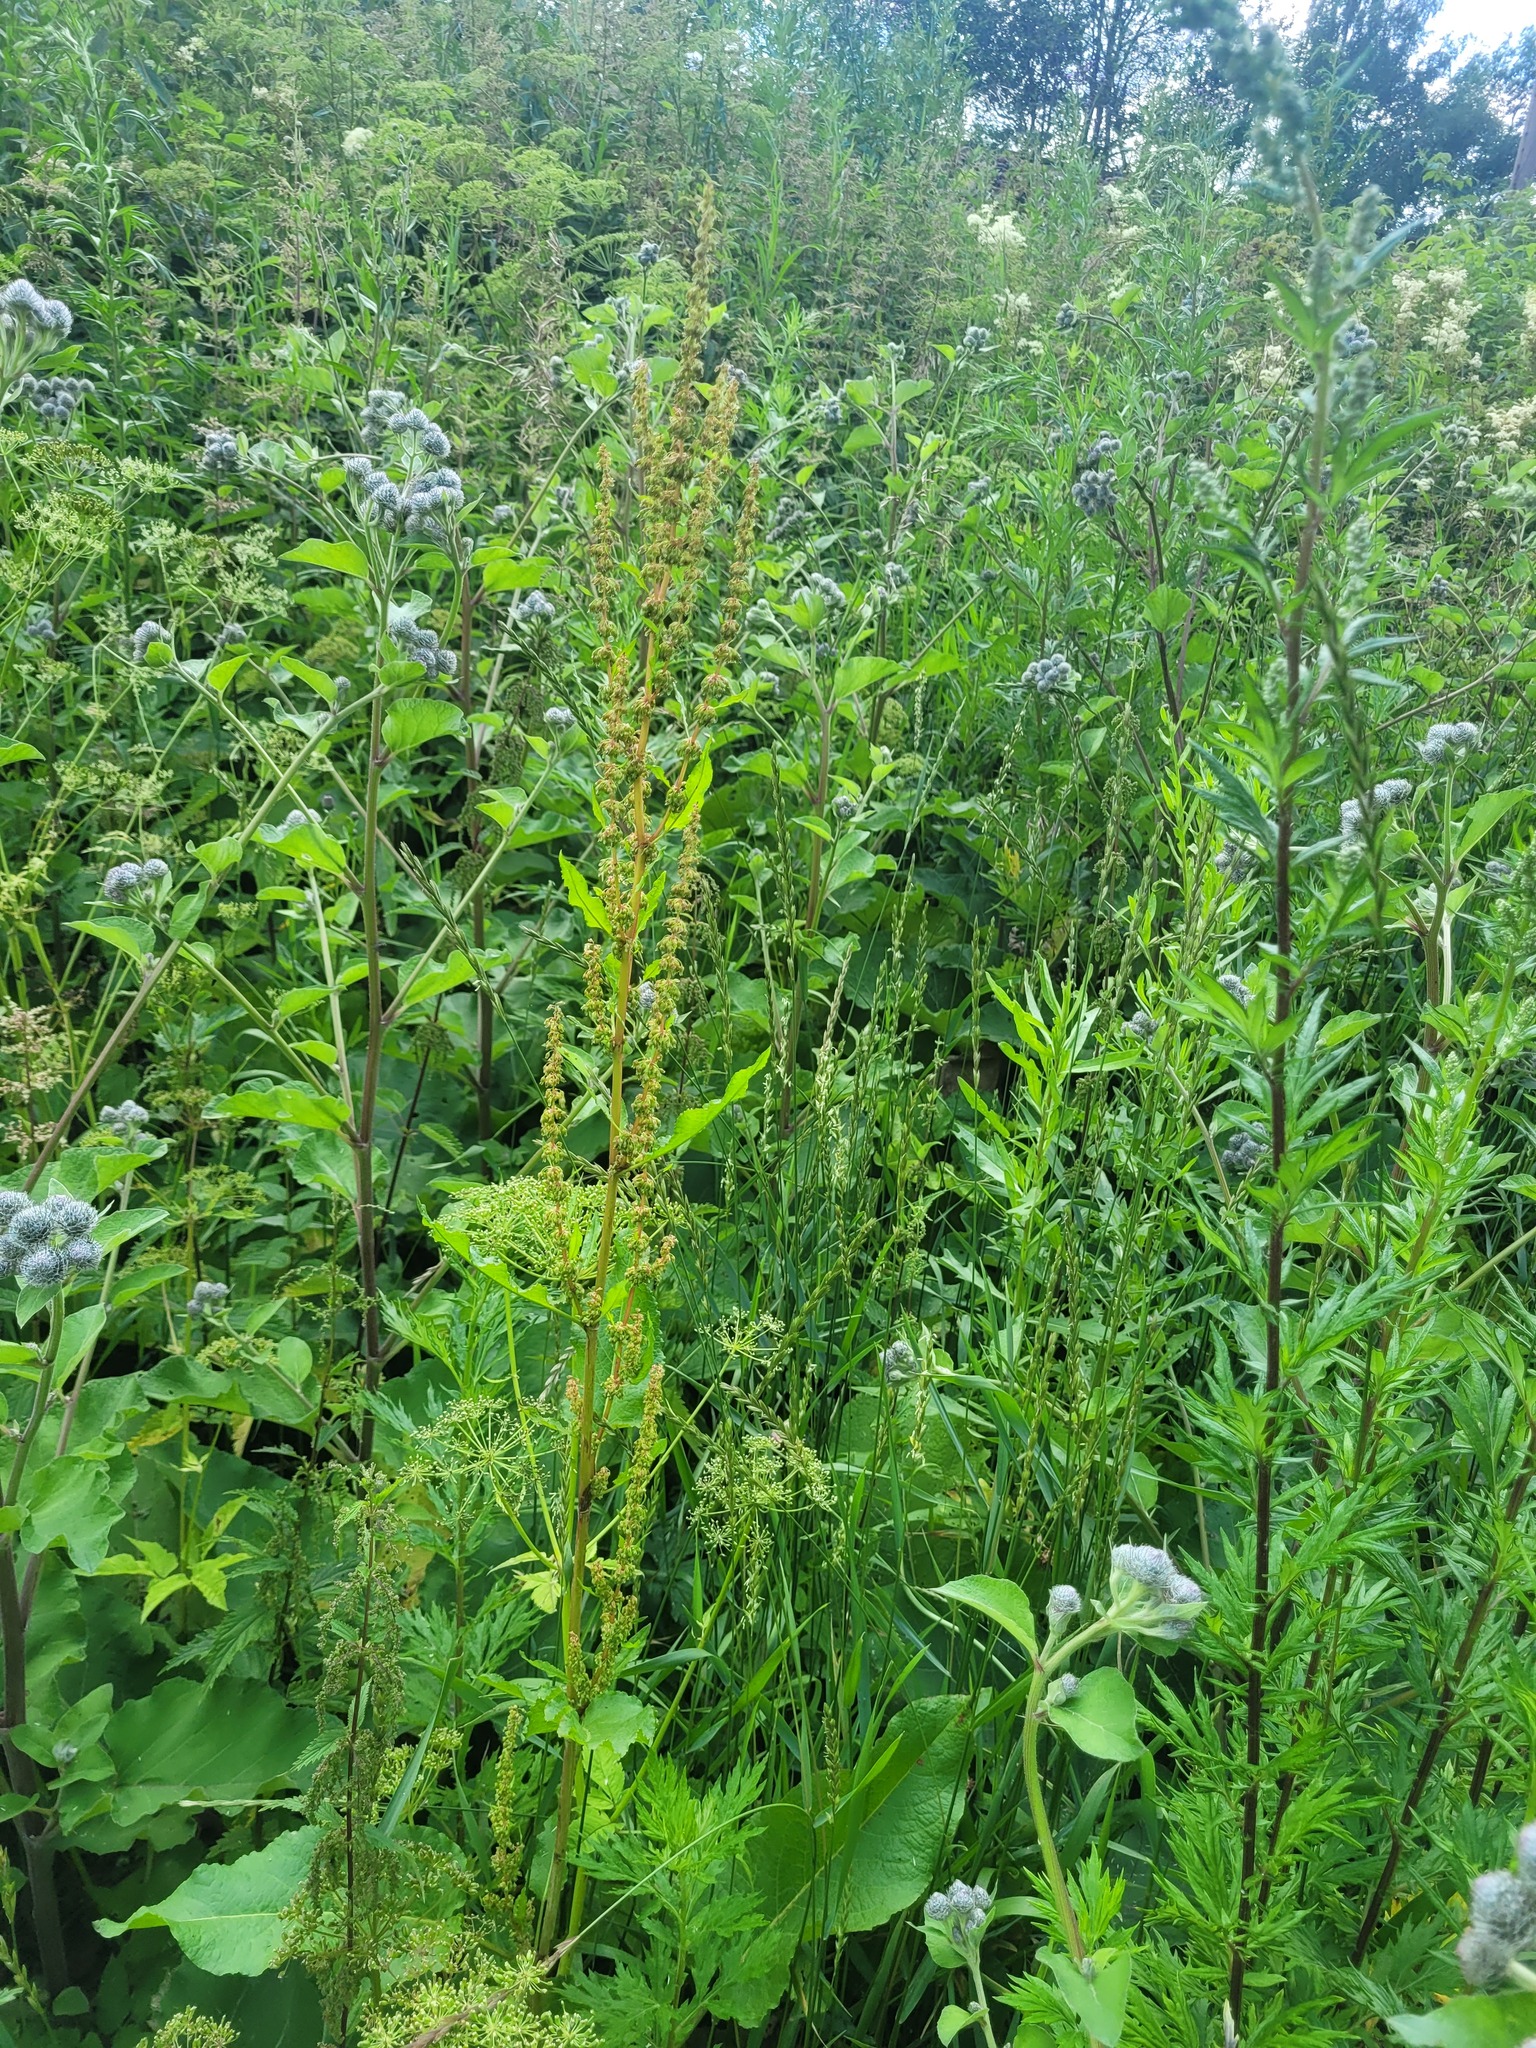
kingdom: Plantae
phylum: Tracheophyta
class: Magnoliopsida
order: Caryophyllales
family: Polygonaceae
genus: Rumex
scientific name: Rumex obtusifolius
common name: Bitter dock
